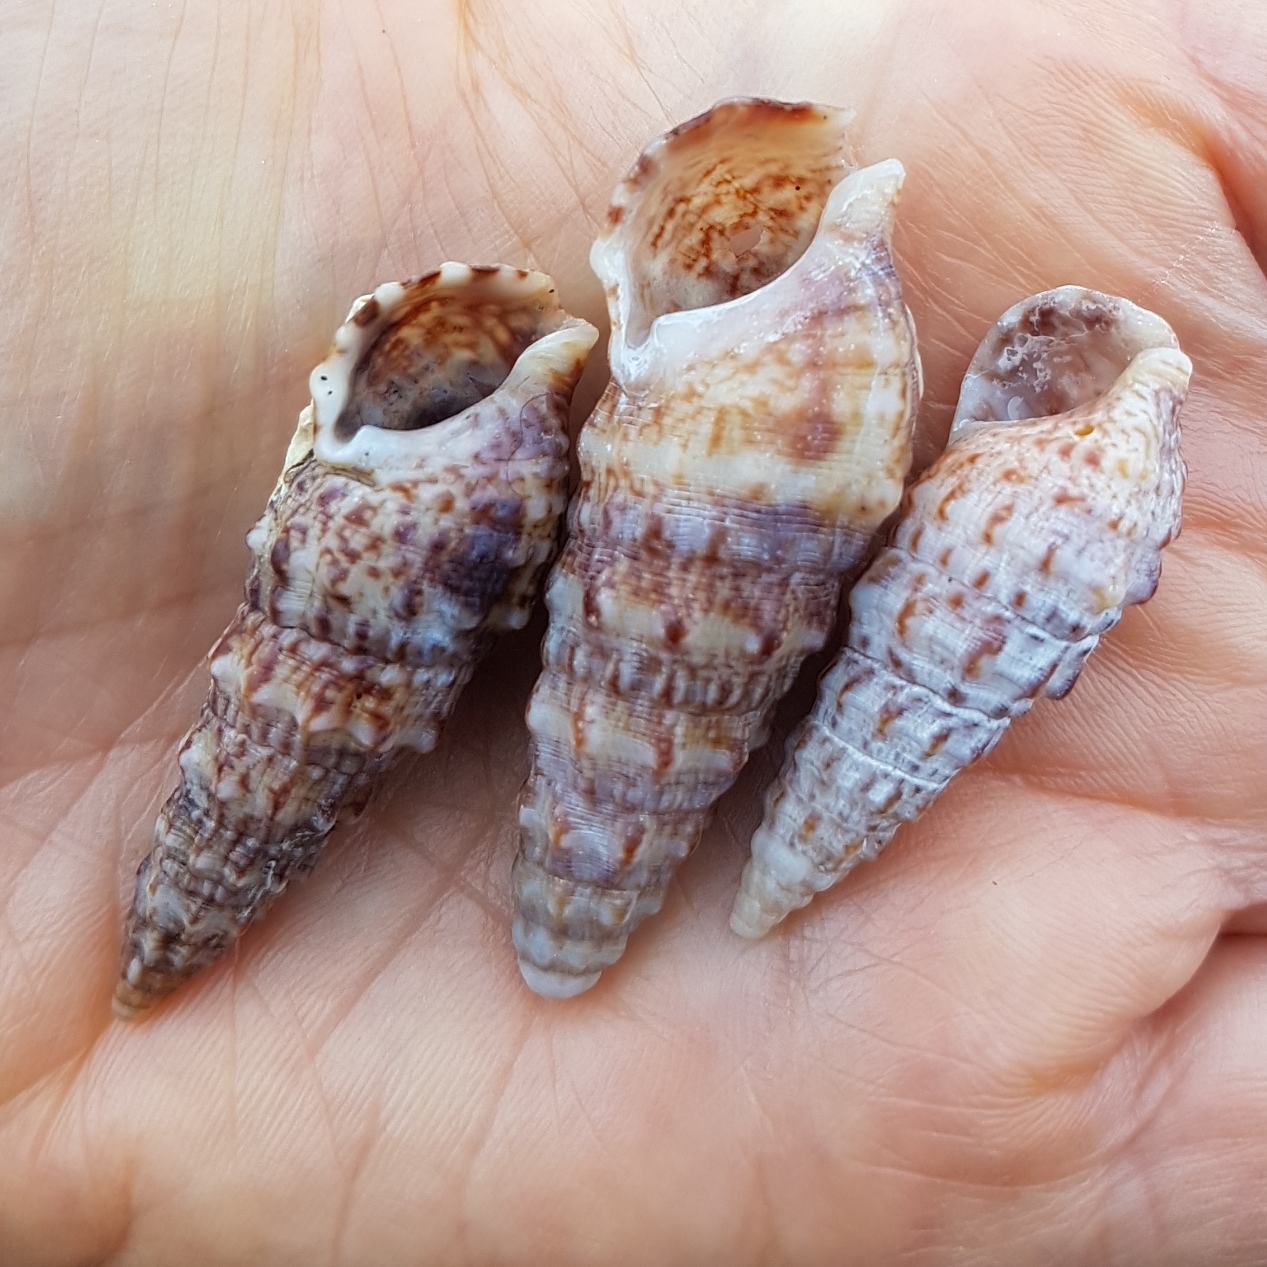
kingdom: Animalia
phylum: Mollusca
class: Gastropoda
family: Cerithiidae
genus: Cerithium
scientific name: Cerithium vulgatum
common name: European cerith
